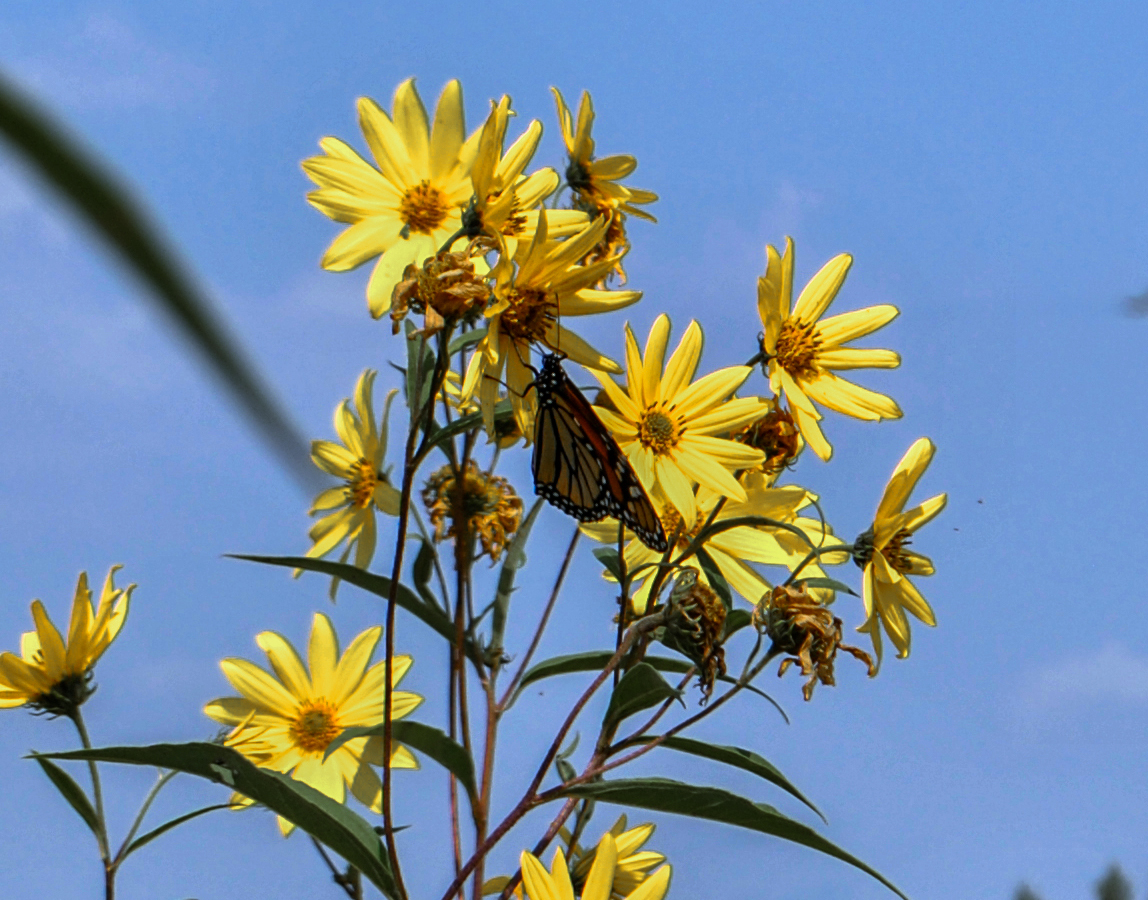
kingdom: Animalia
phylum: Arthropoda
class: Insecta
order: Lepidoptera
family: Nymphalidae
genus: Danaus
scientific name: Danaus plexippus
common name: Monarch
